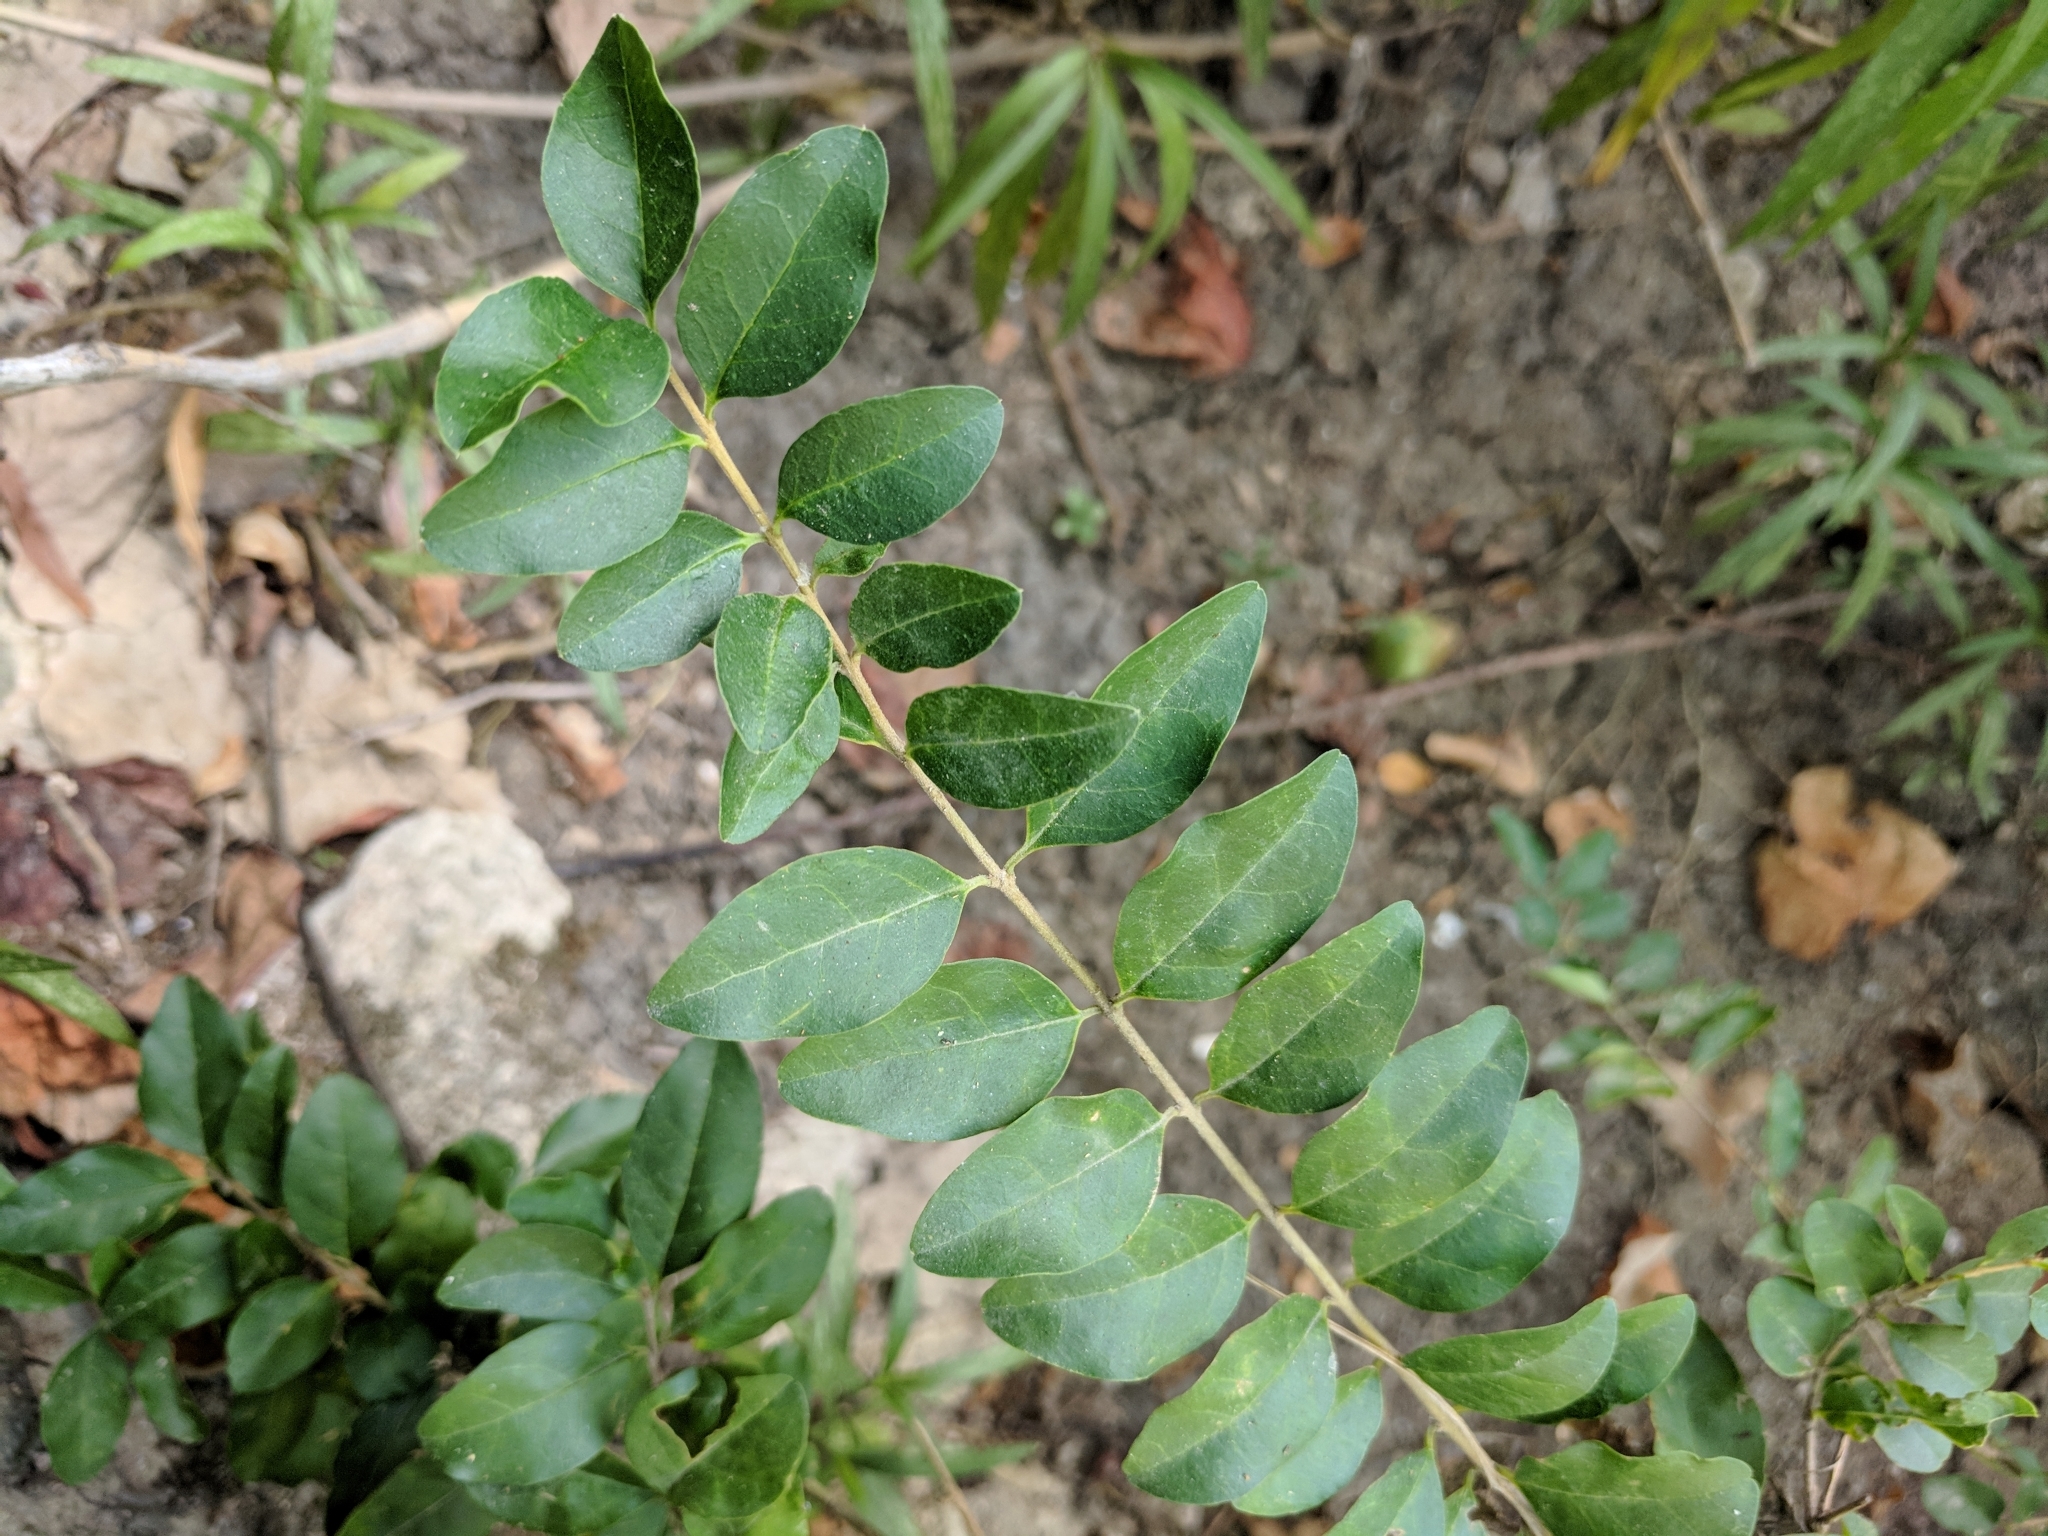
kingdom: Plantae
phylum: Tracheophyta
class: Magnoliopsida
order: Lamiales
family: Oleaceae
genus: Ligustrum
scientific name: Ligustrum sinense
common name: Chinese privet
